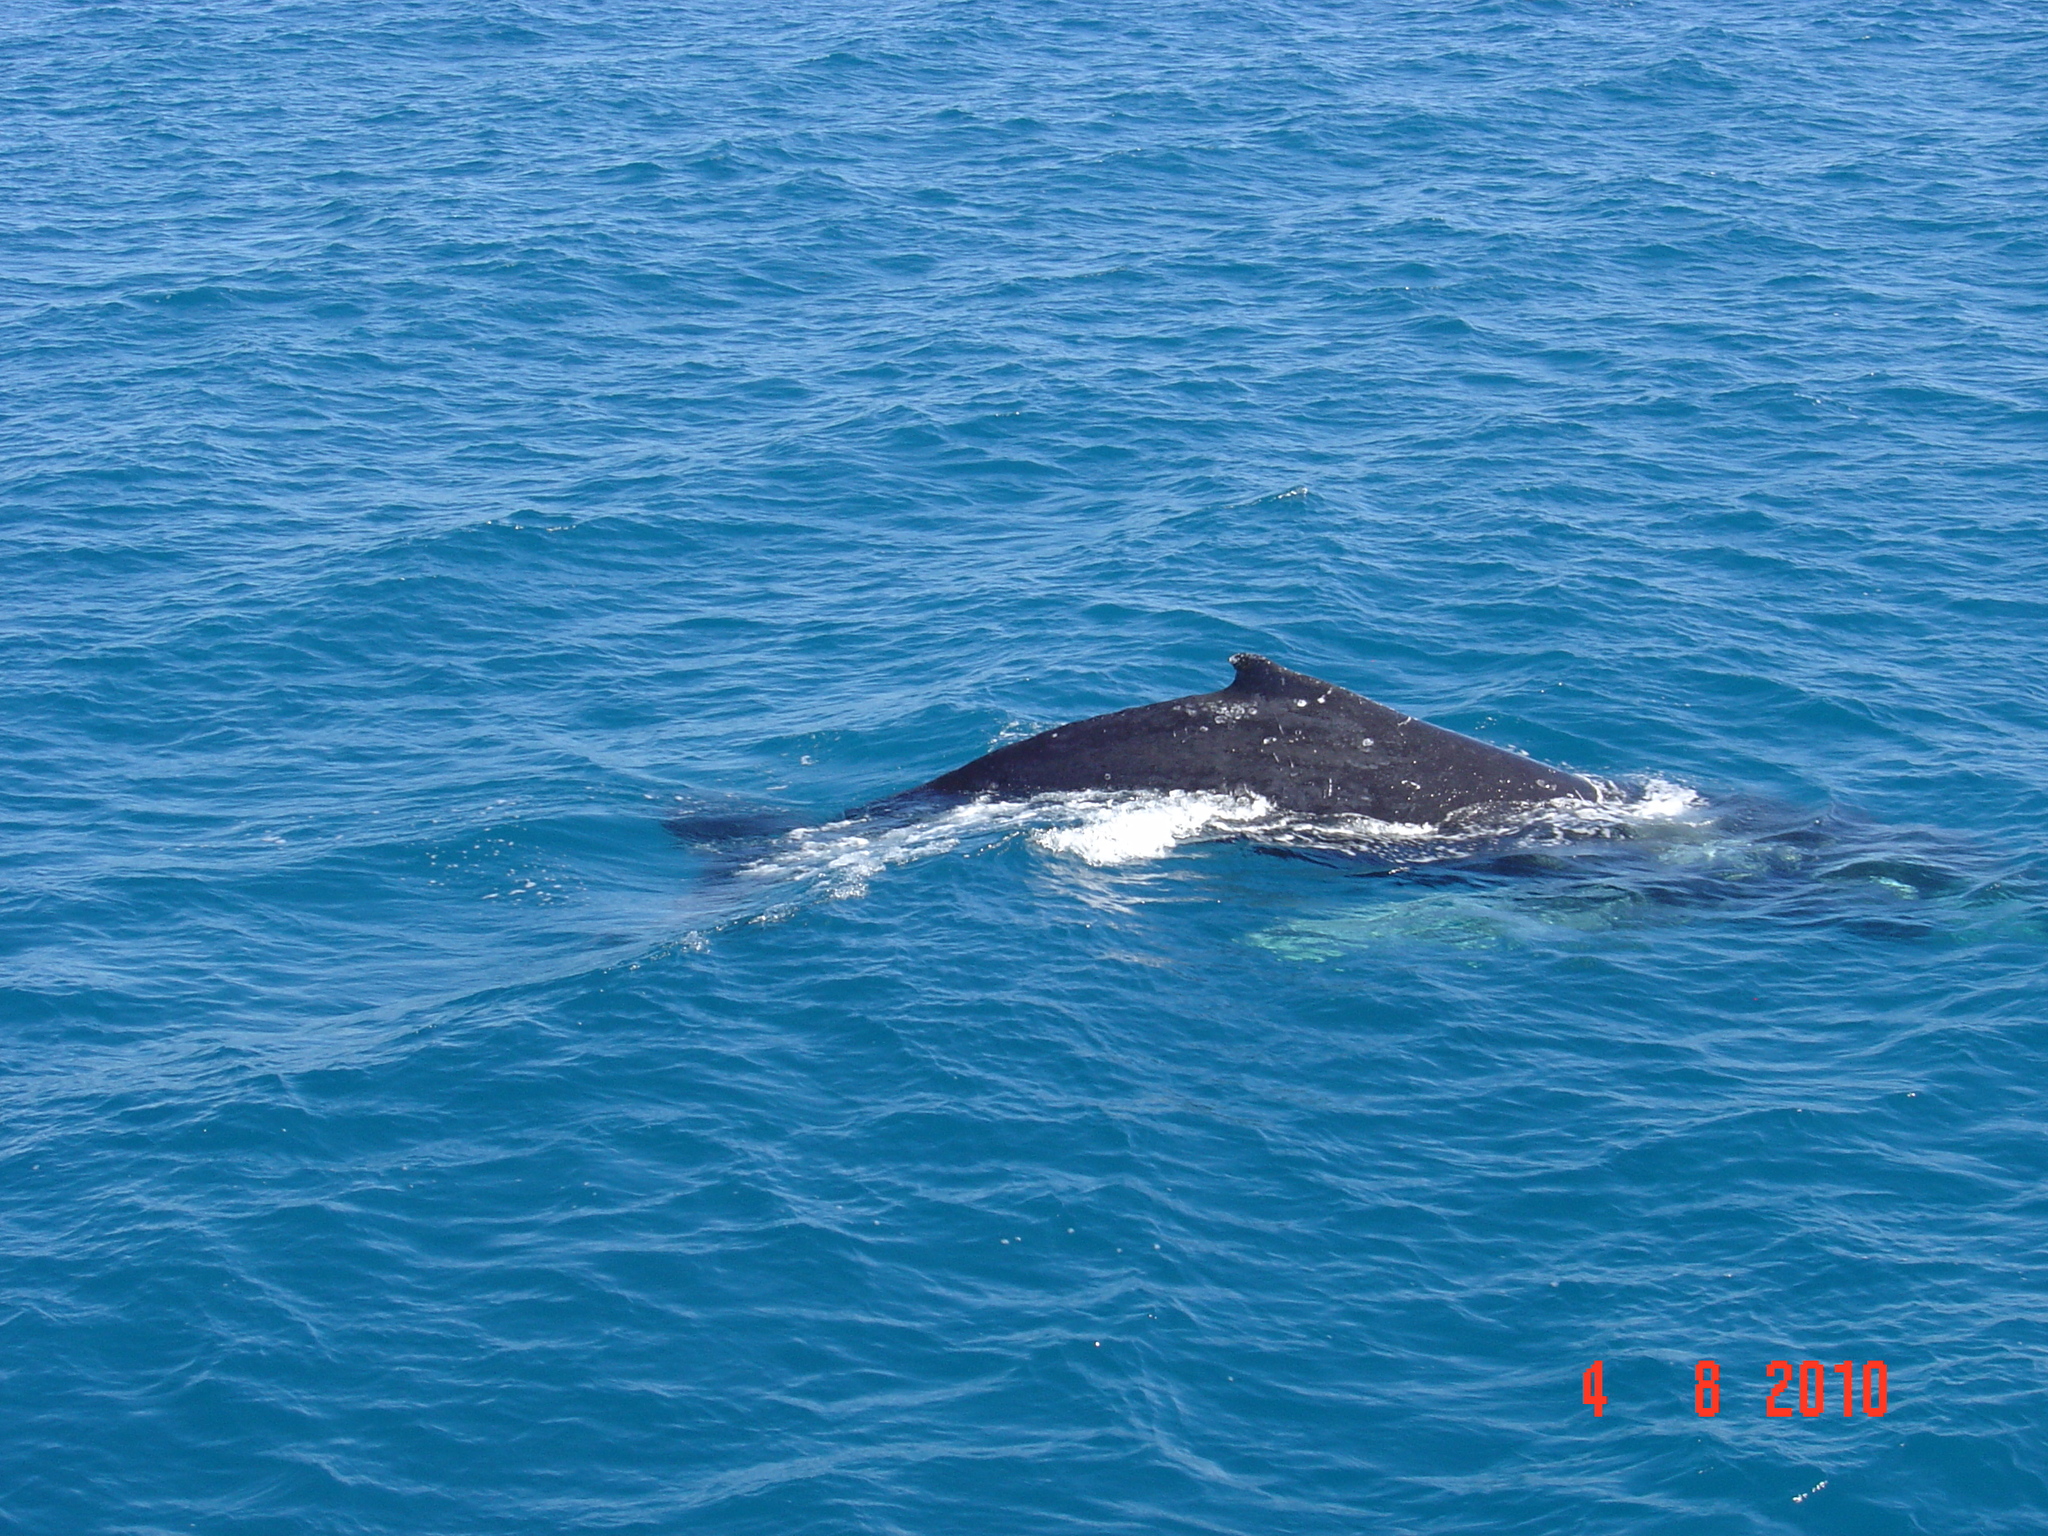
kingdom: Animalia
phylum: Chordata
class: Mammalia
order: Cetacea
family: Balaenopteridae
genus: Megaptera
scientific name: Megaptera novaeangliae
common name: Humpback whale
